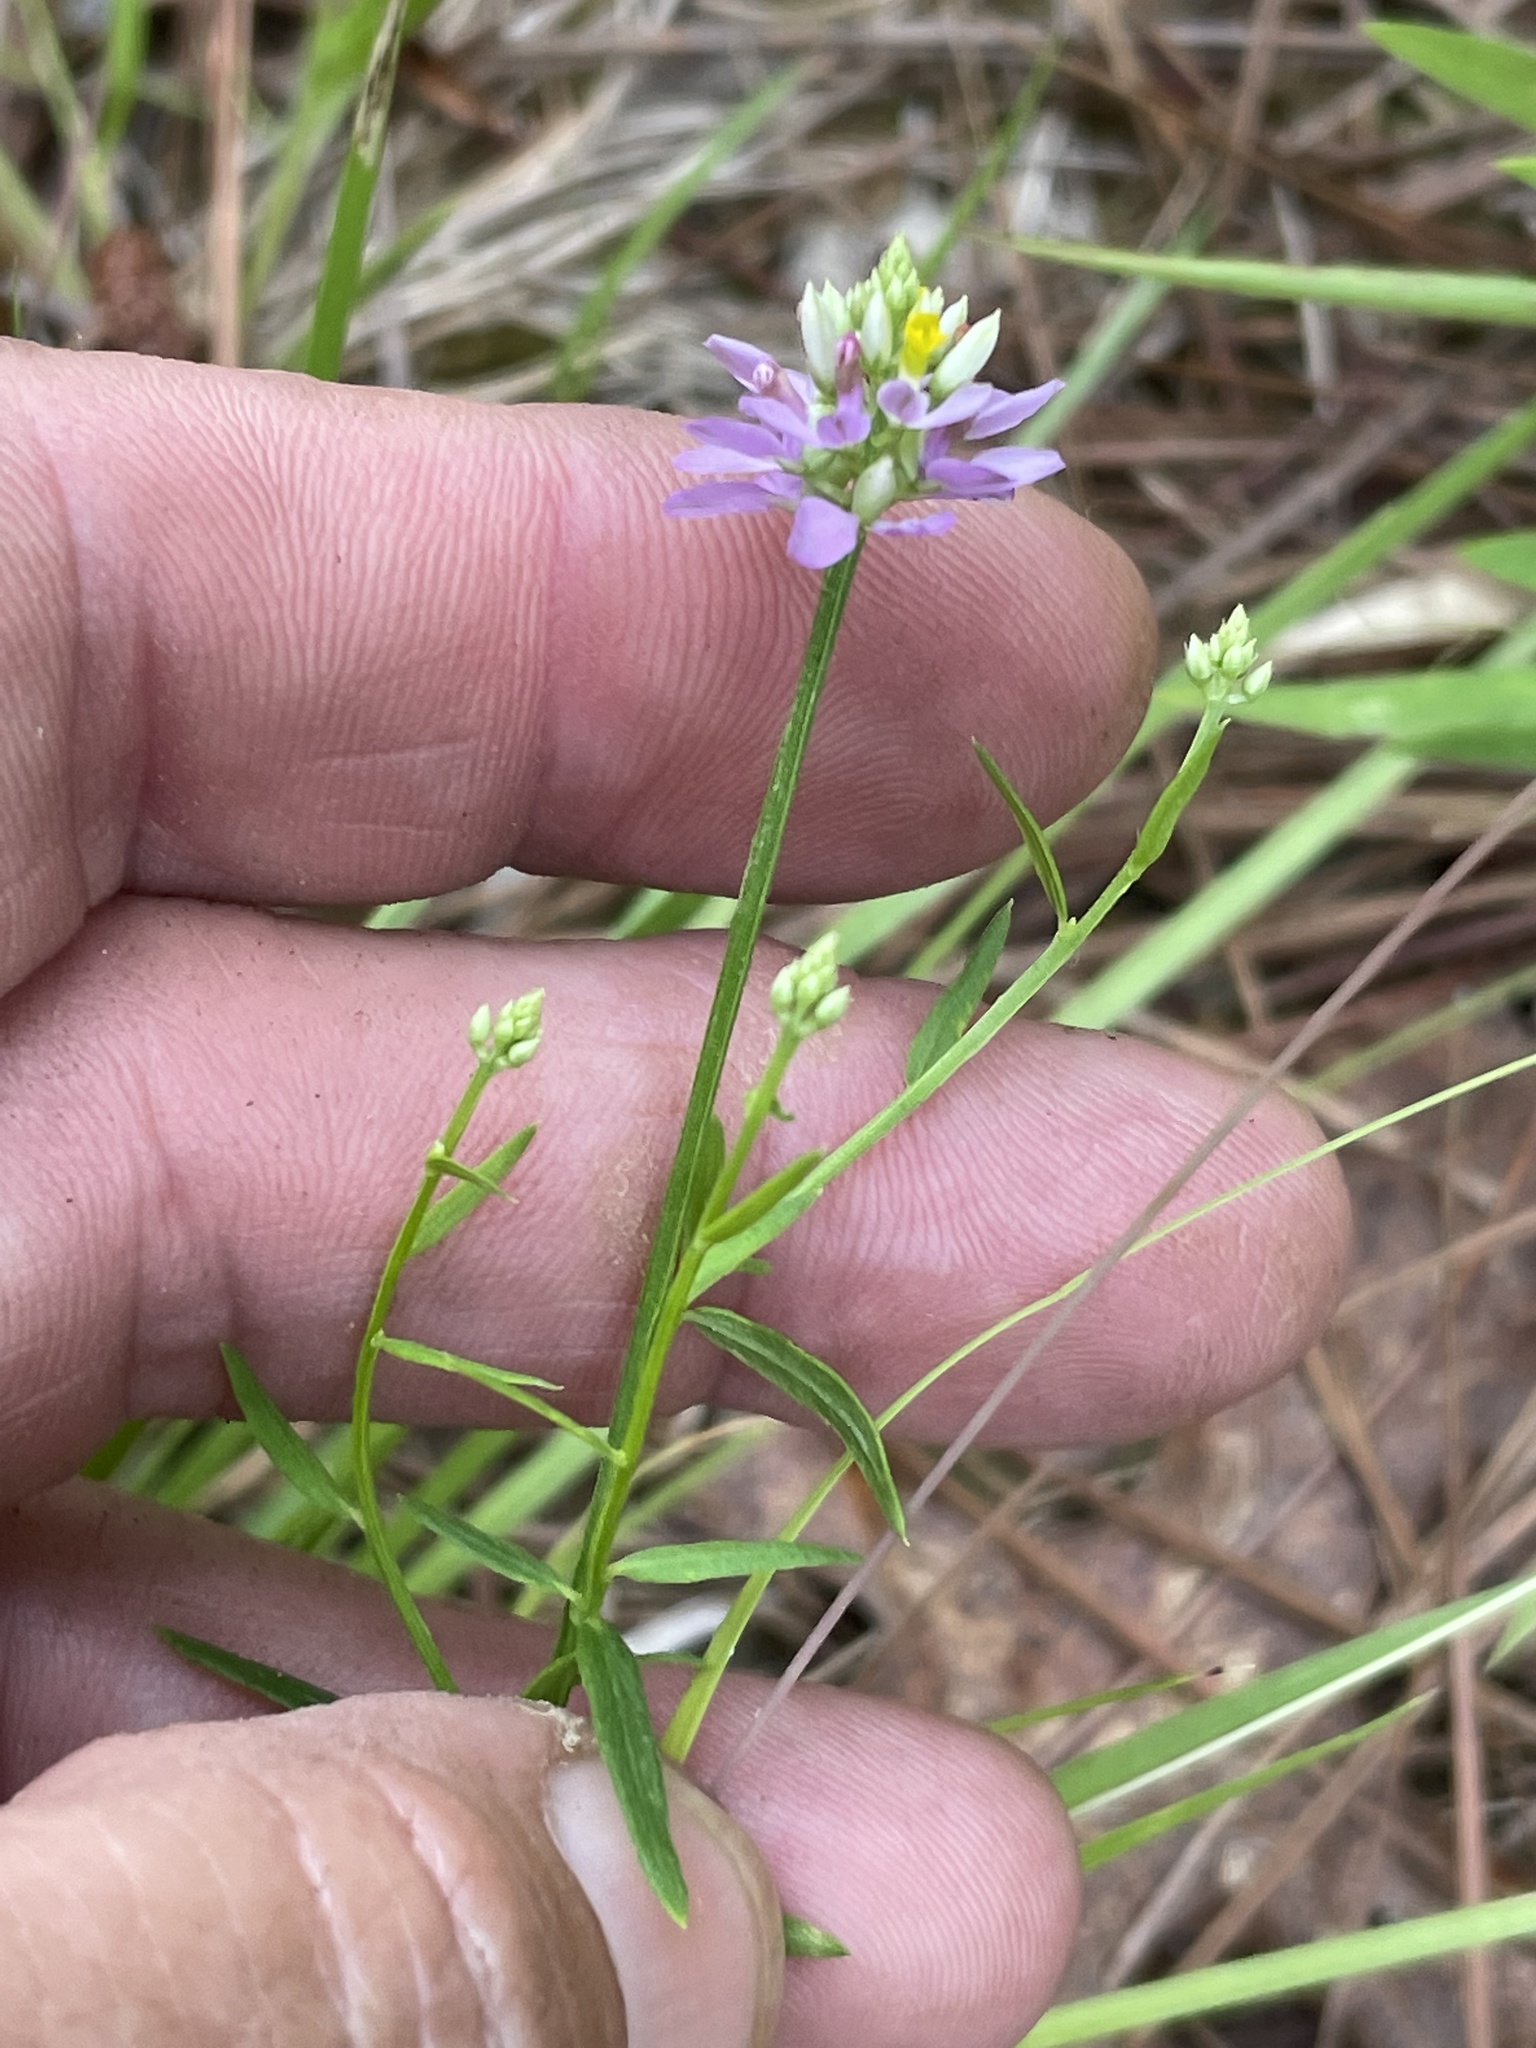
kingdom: Plantae
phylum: Tracheophyta
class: Magnoliopsida
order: Fabales
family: Polygalaceae
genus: Polygala
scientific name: Polygala curtissii
